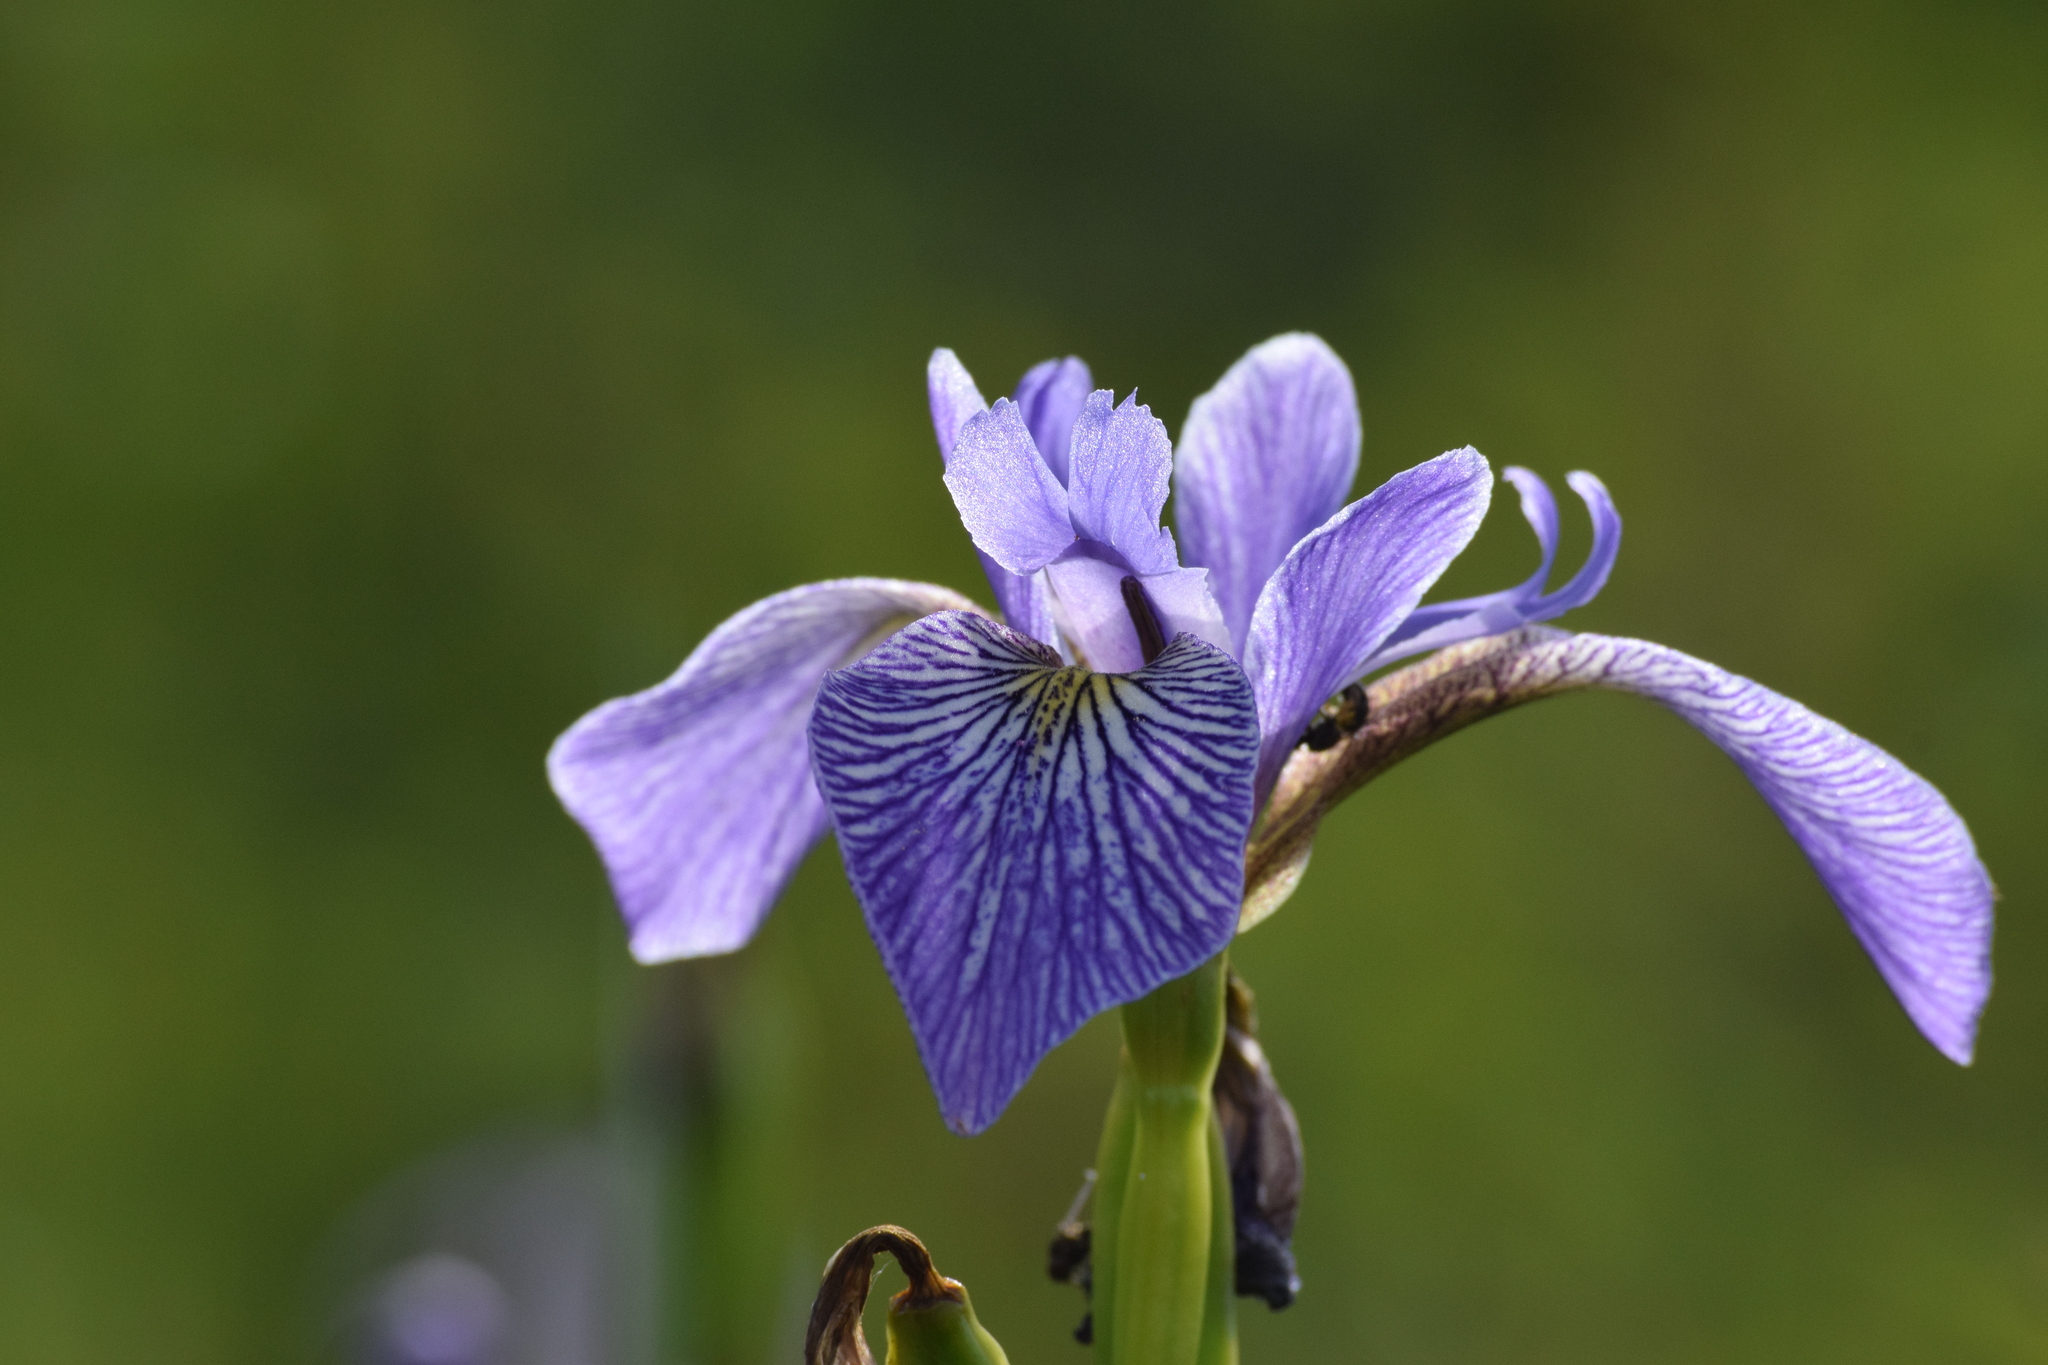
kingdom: Plantae
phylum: Tracheophyta
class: Liliopsida
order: Asparagales
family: Iridaceae
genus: Iris
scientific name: Iris versicolor
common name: Purple iris
